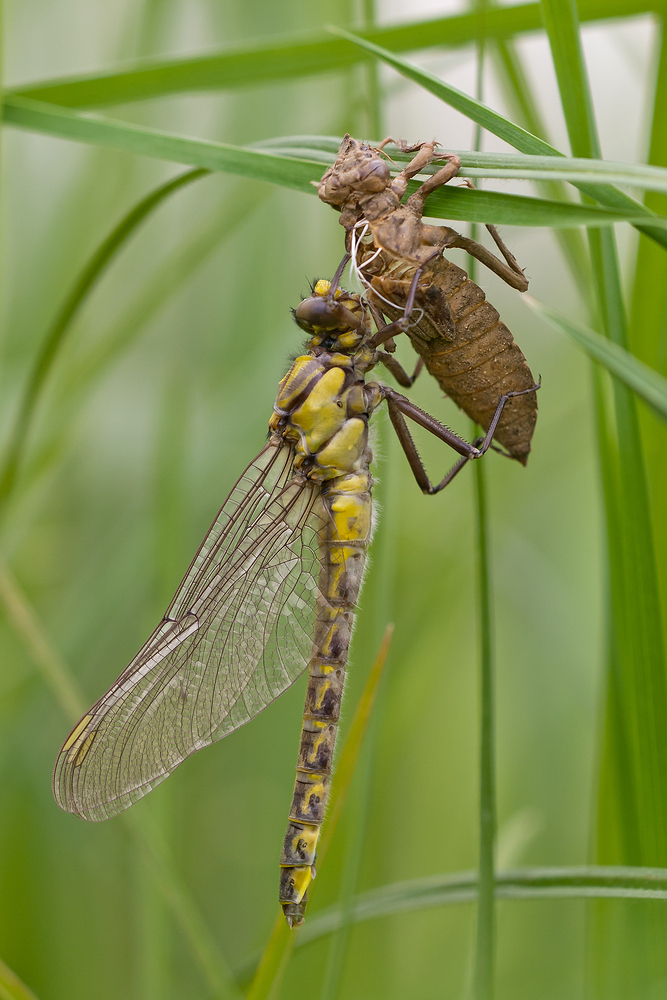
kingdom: Animalia
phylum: Arthropoda
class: Insecta
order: Odonata
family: Gomphidae
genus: Gomphus
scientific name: Gomphus vulgatissimus
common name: Club-tailed dragonfly
